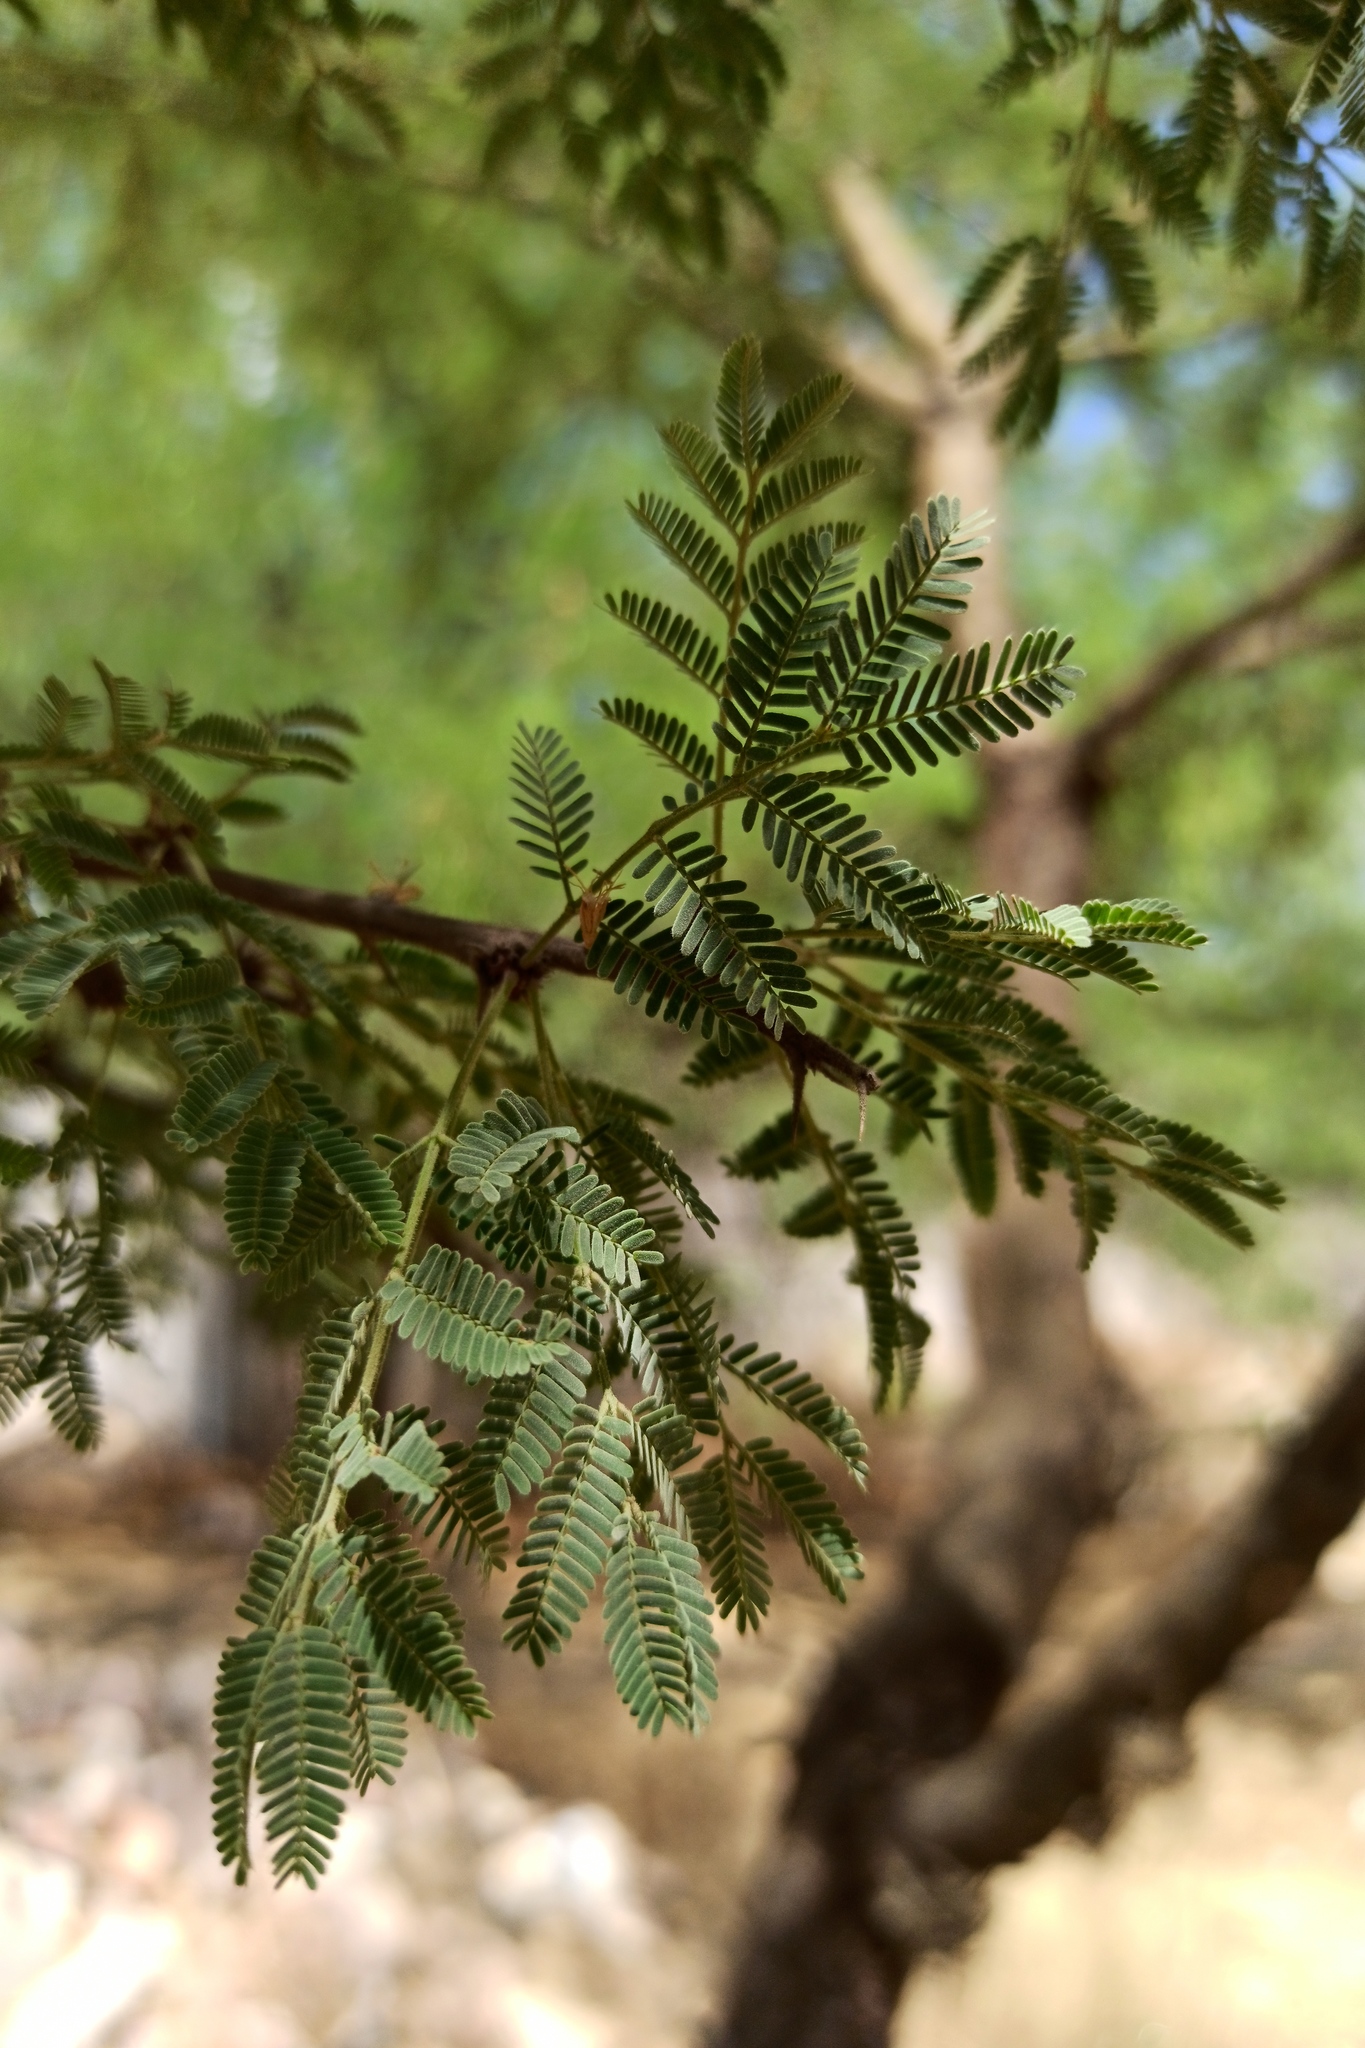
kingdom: Plantae
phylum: Tracheophyta
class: Magnoliopsida
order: Fabales
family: Fabaceae
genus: Vachellia
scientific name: Vachellia farnesiana
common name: Sweet acacia
